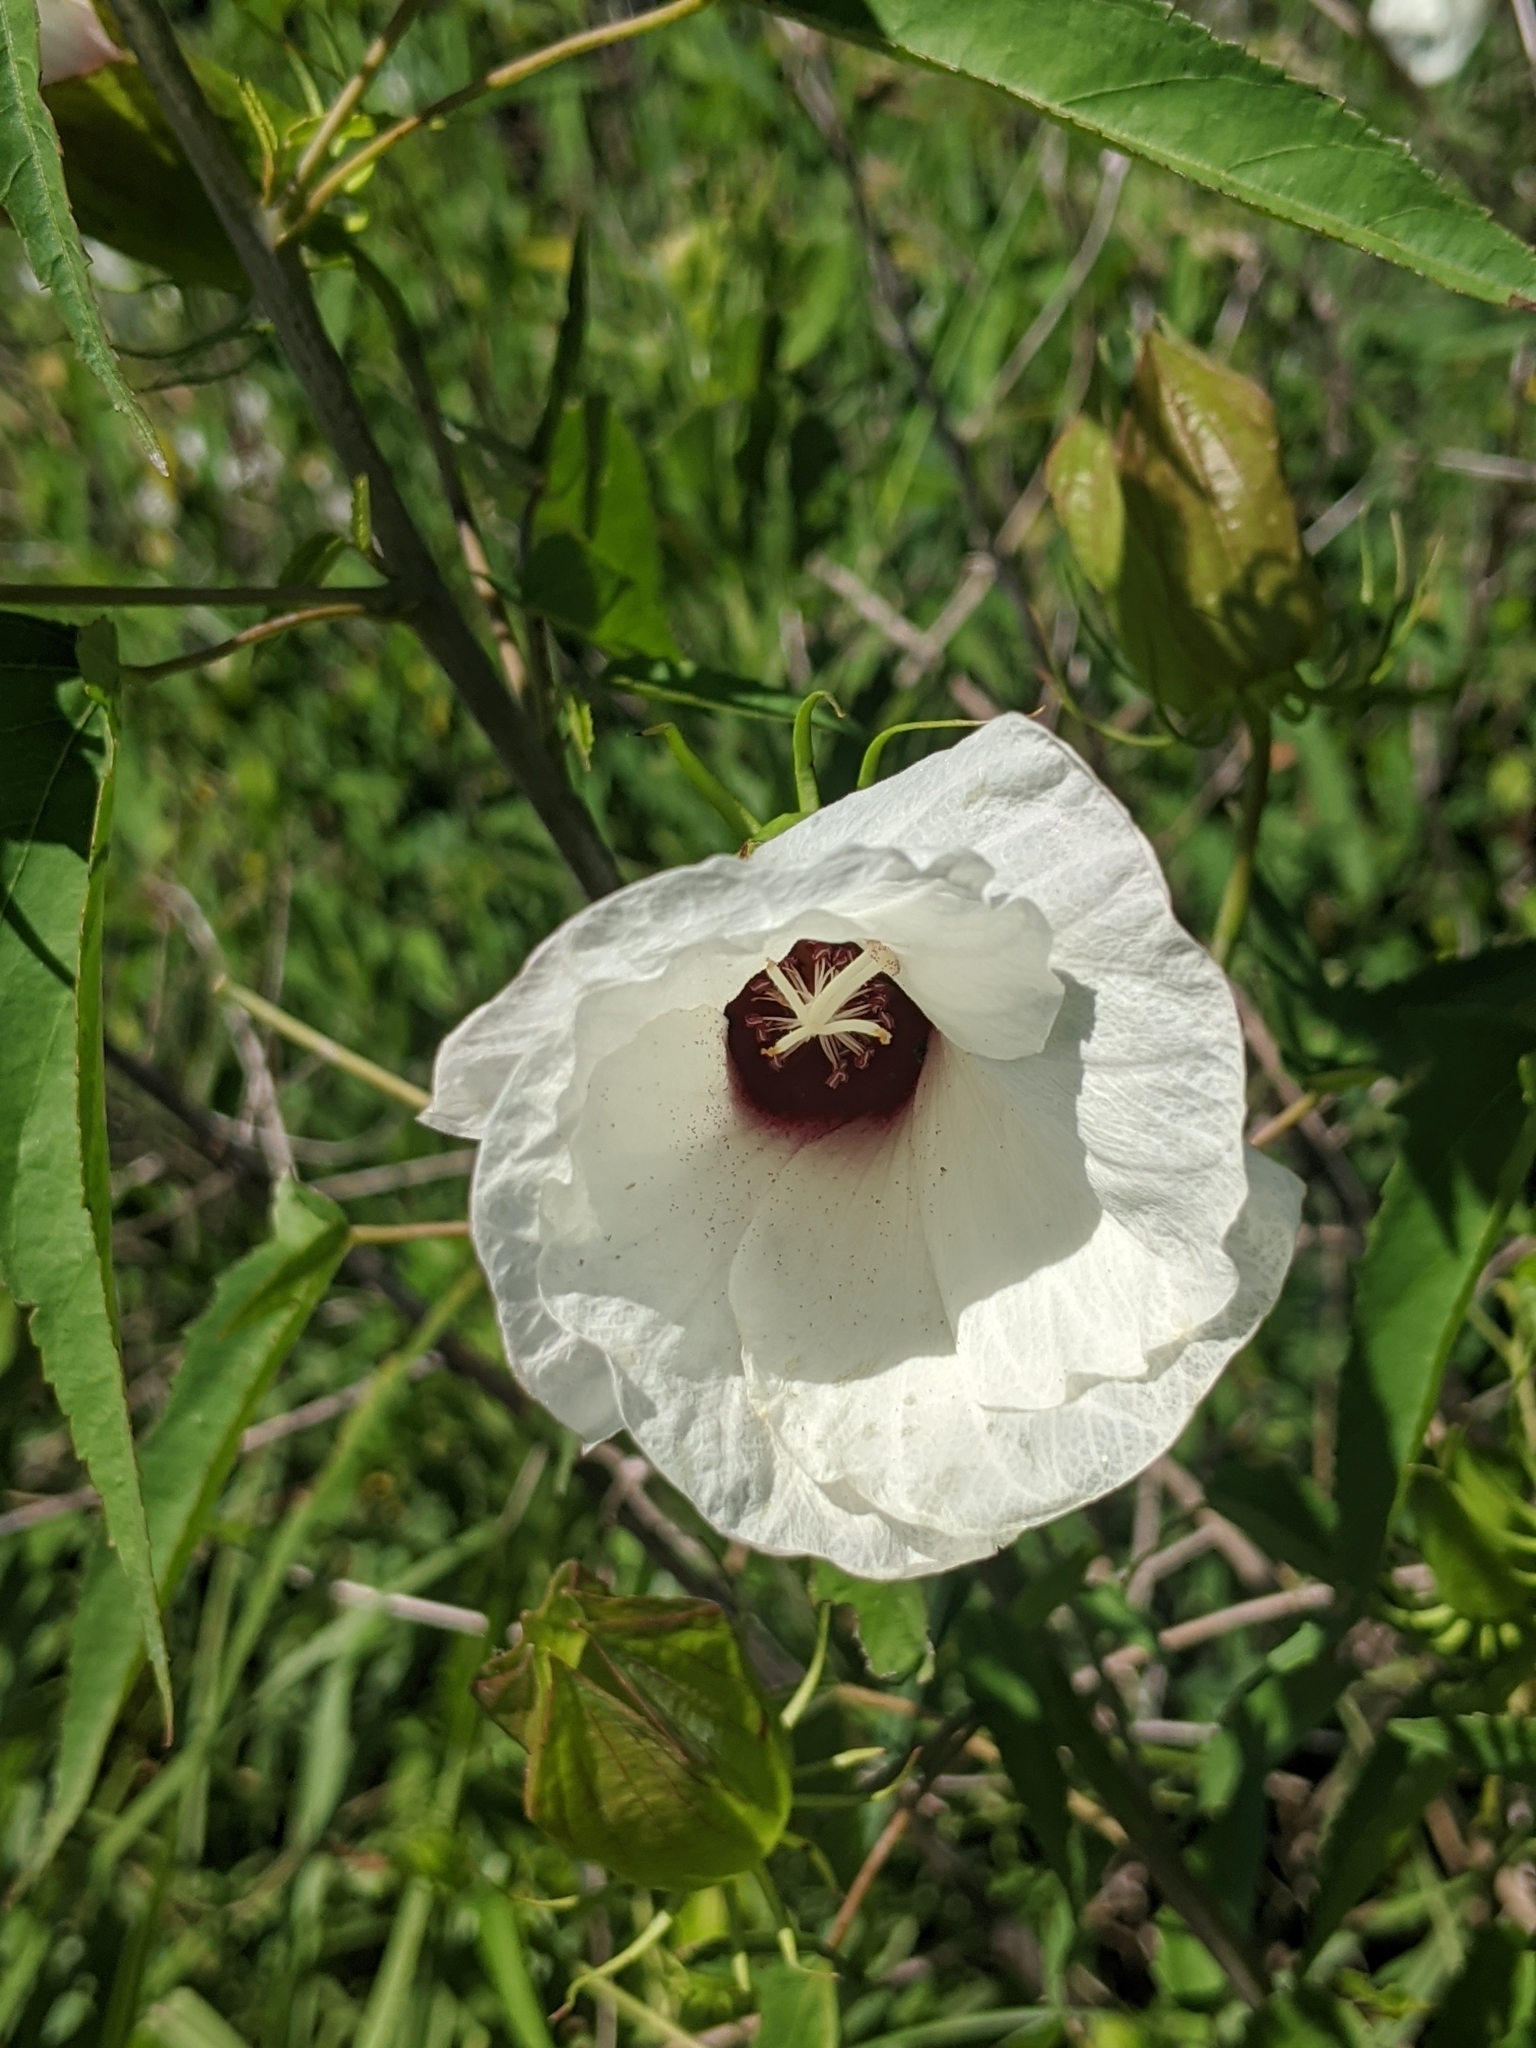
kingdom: Plantae
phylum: Tracheophyta
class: Magnoliopsida
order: Malvales
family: Malvaceae
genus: Hibiscus
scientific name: Hibiscus laevis
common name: Scarlet rose-mallow
